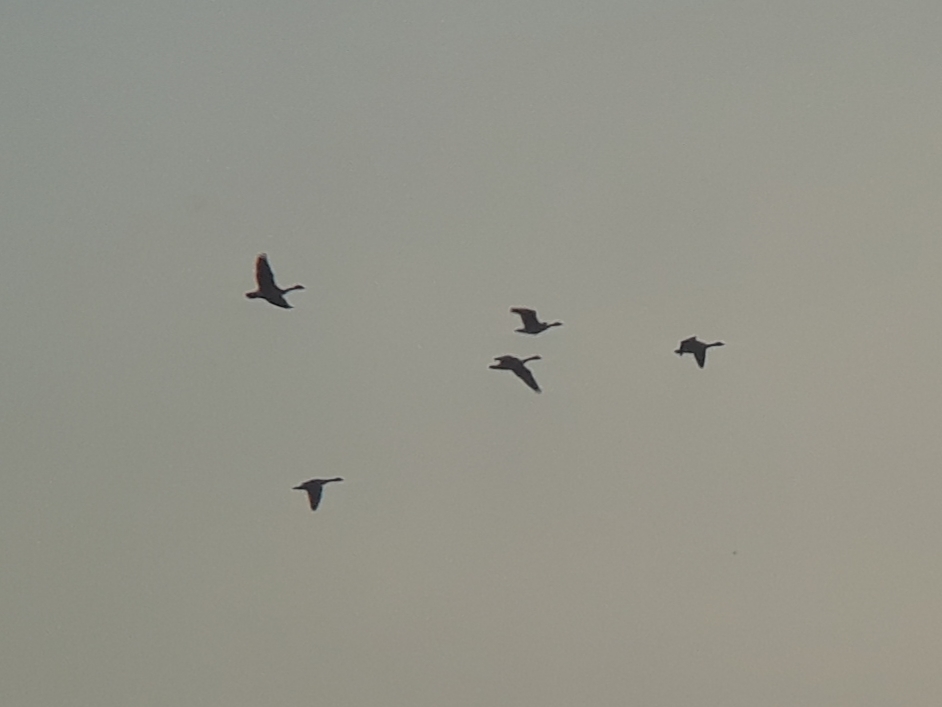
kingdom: Animalia
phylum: Chordata
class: Aves
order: Anseriformes
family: Anatidae
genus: Branta
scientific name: Branta canadensis
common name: Canada goose
